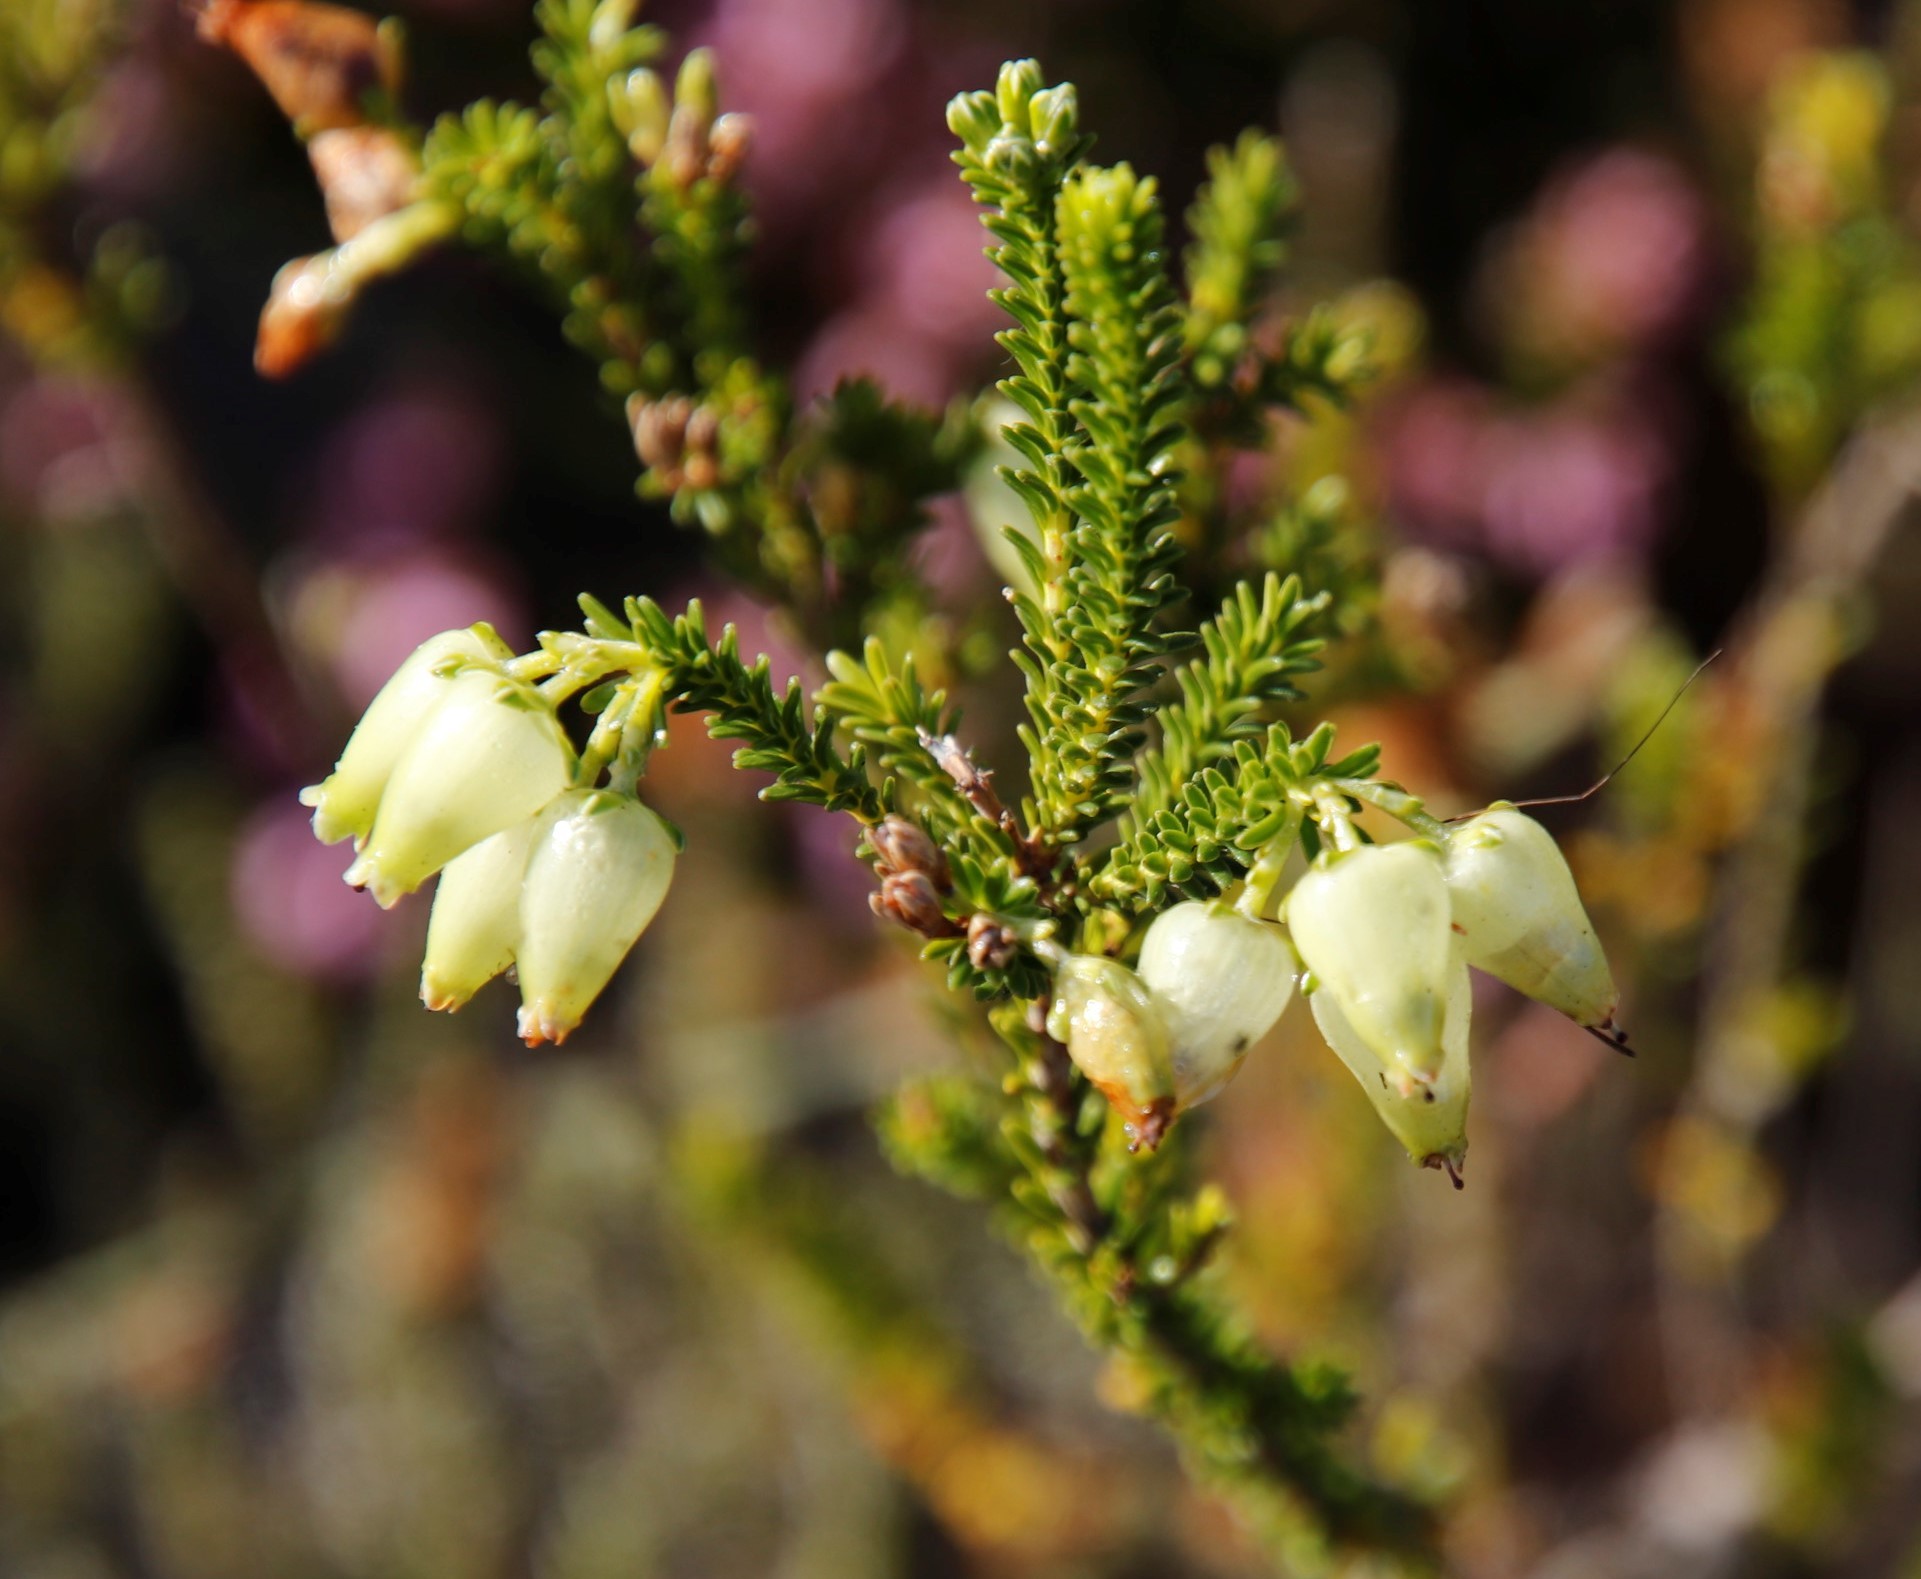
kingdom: Plantae
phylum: Tracheophyta
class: Magnoliopsida
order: Ericales
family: Ericaceae
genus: Erica
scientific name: Erica urna-viridis
